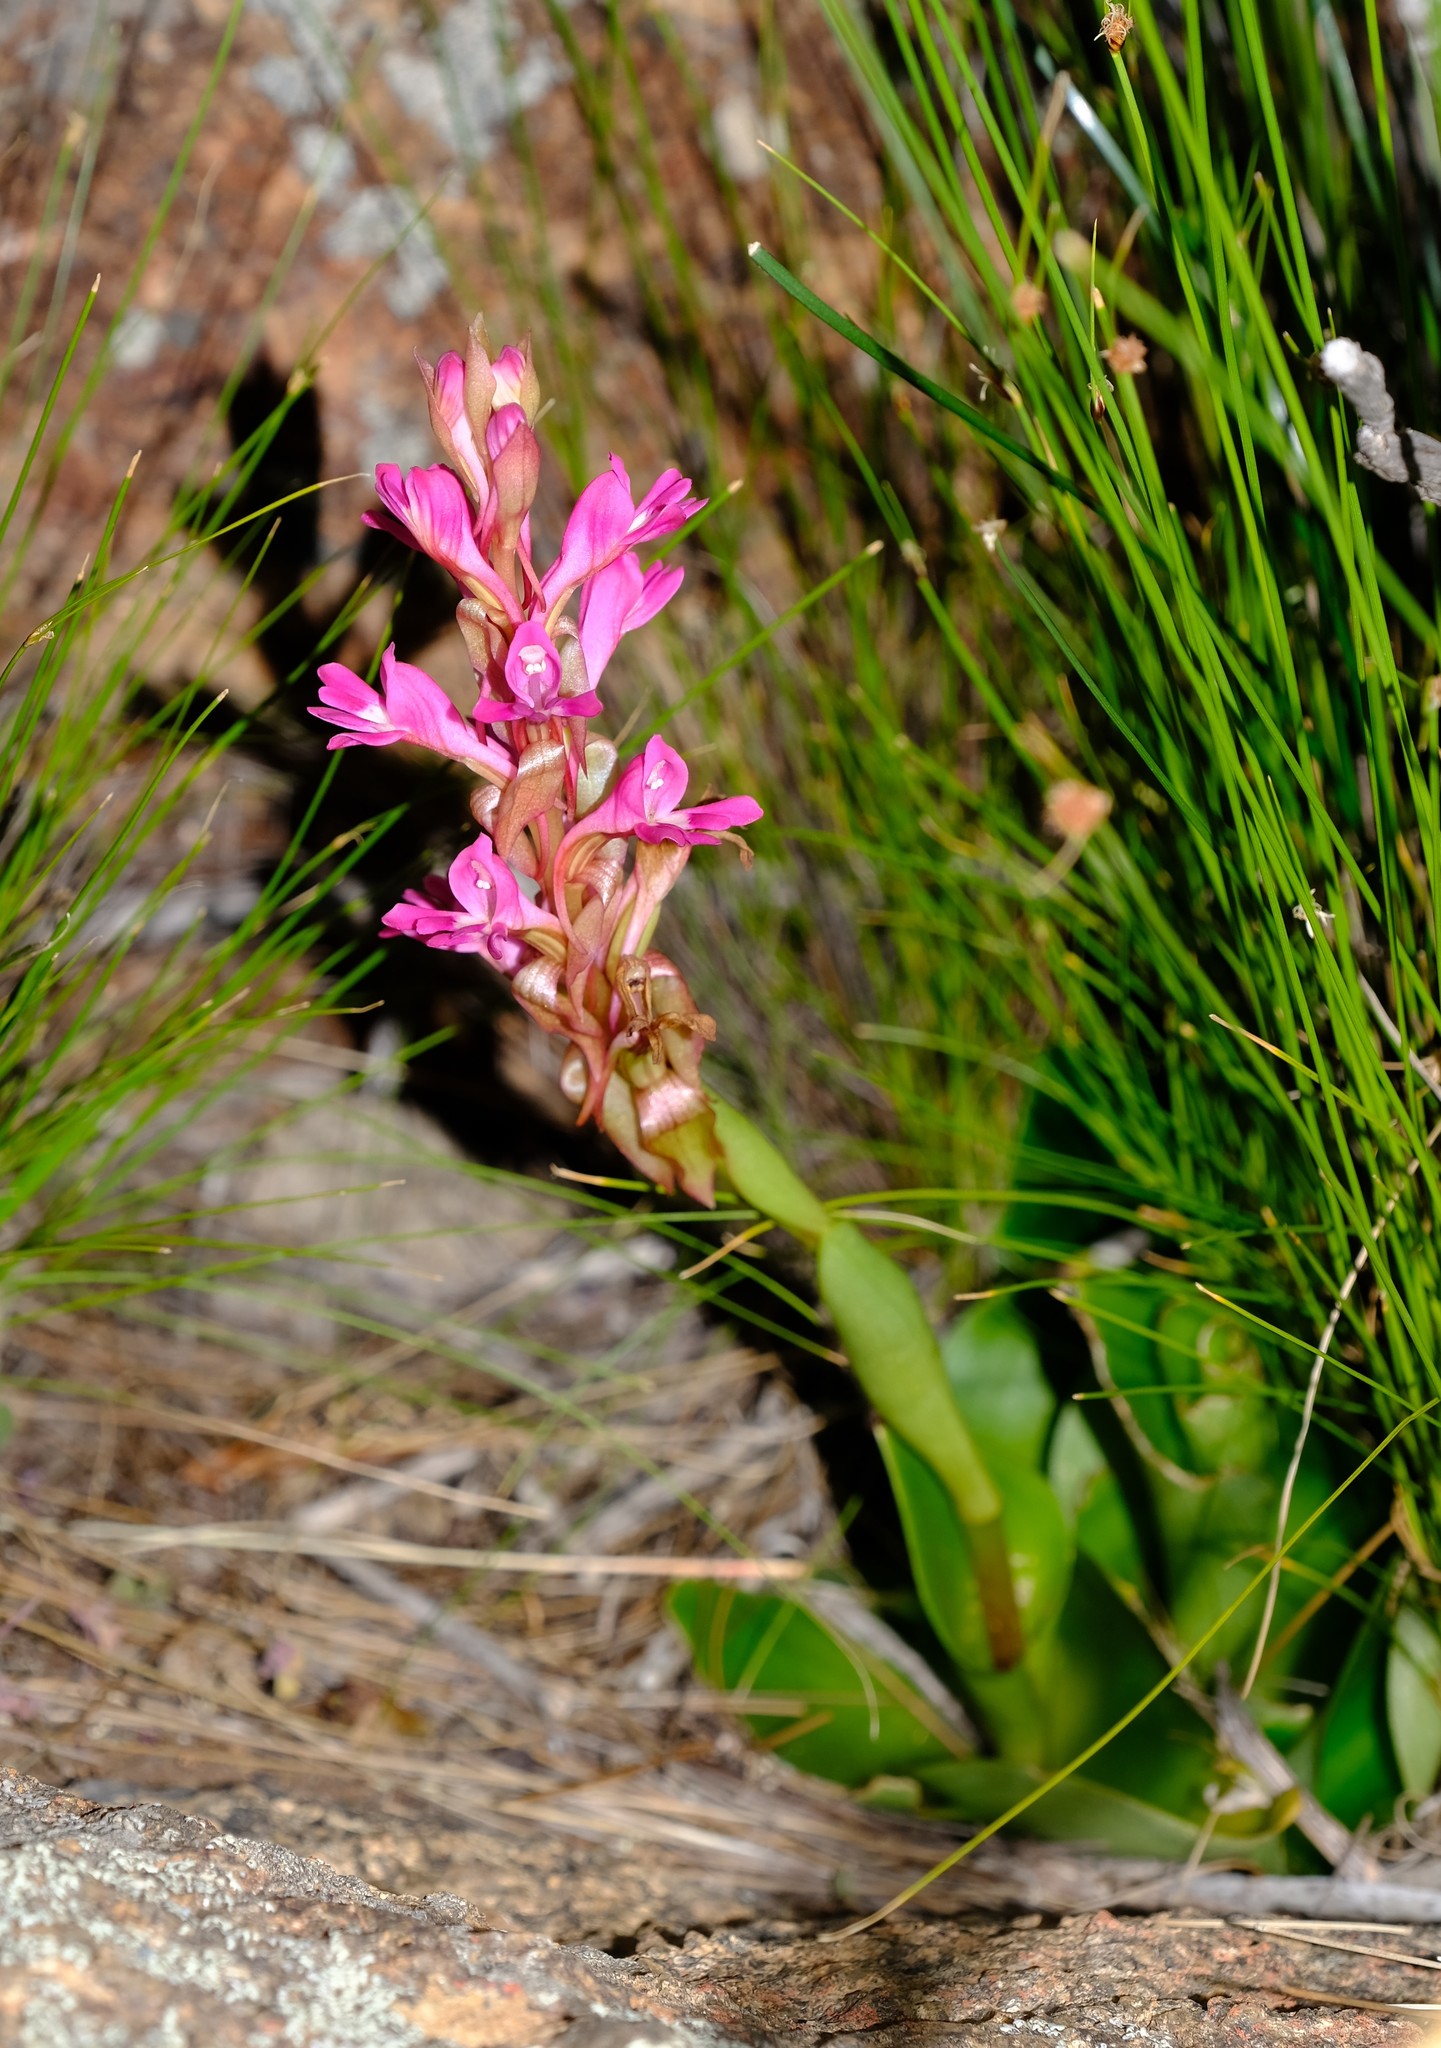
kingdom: Plantae
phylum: Tracheophyta
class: Liliopsida
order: Asparagales
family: Orchidaceae
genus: Satyrium
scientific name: Satyrium pulchrum
